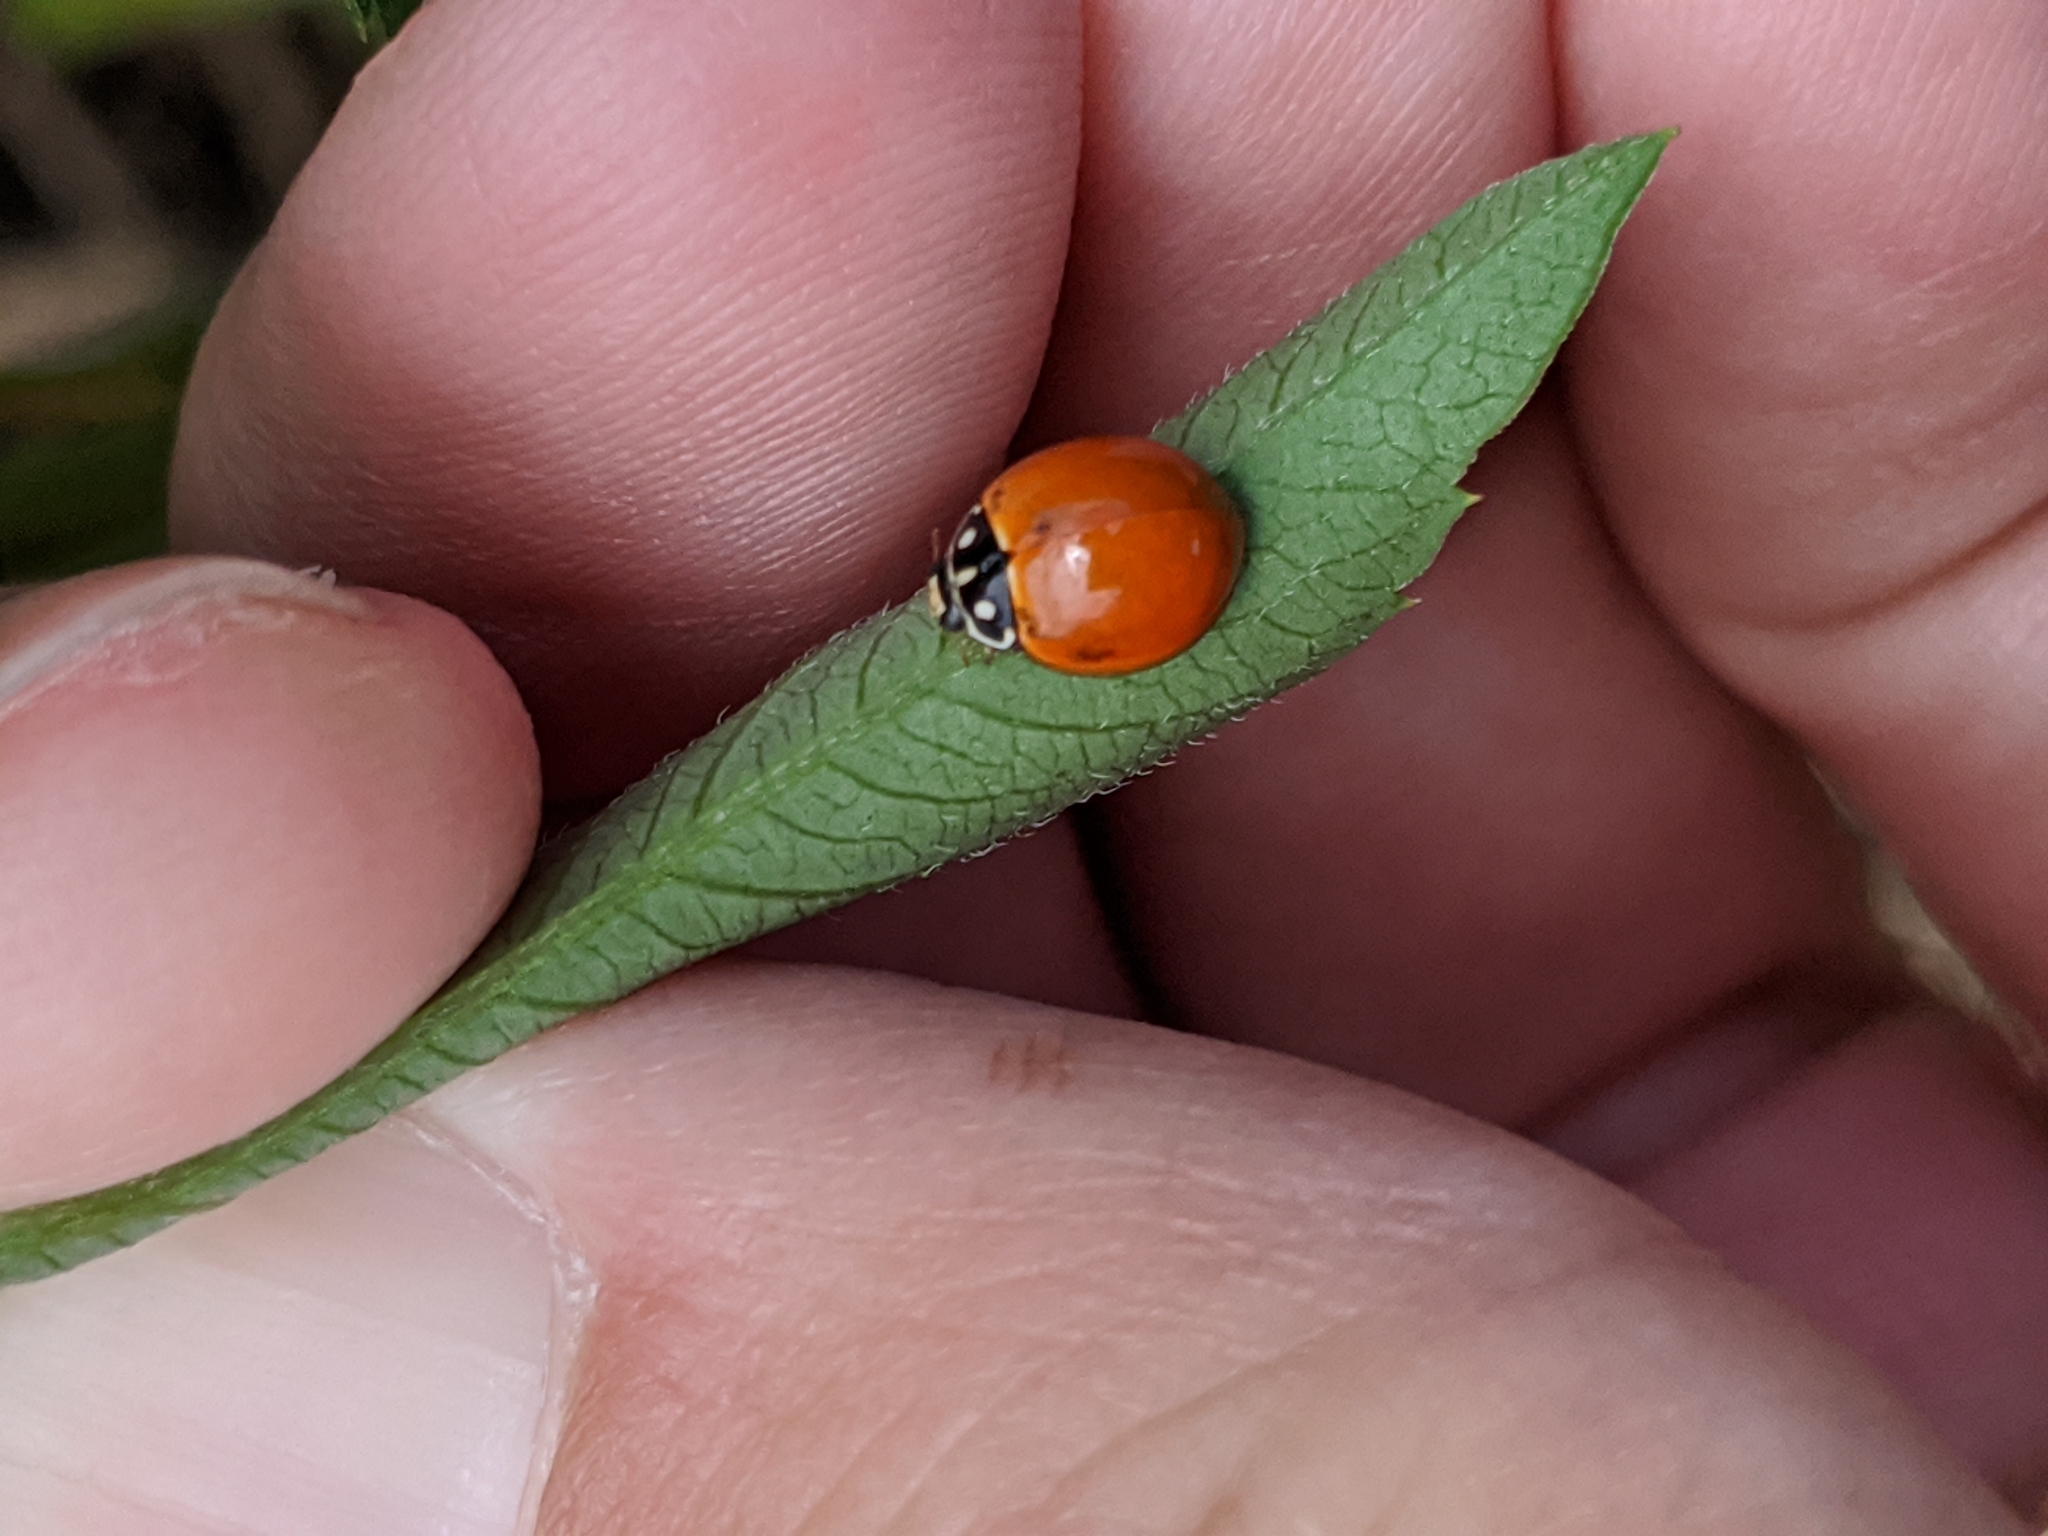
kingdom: Animalia
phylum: Arthropoda
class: Insecta
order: Coleoptera
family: Coccinellidae
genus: Cycloneda
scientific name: Cycloneda sanguinea
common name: Ladybird beetle
